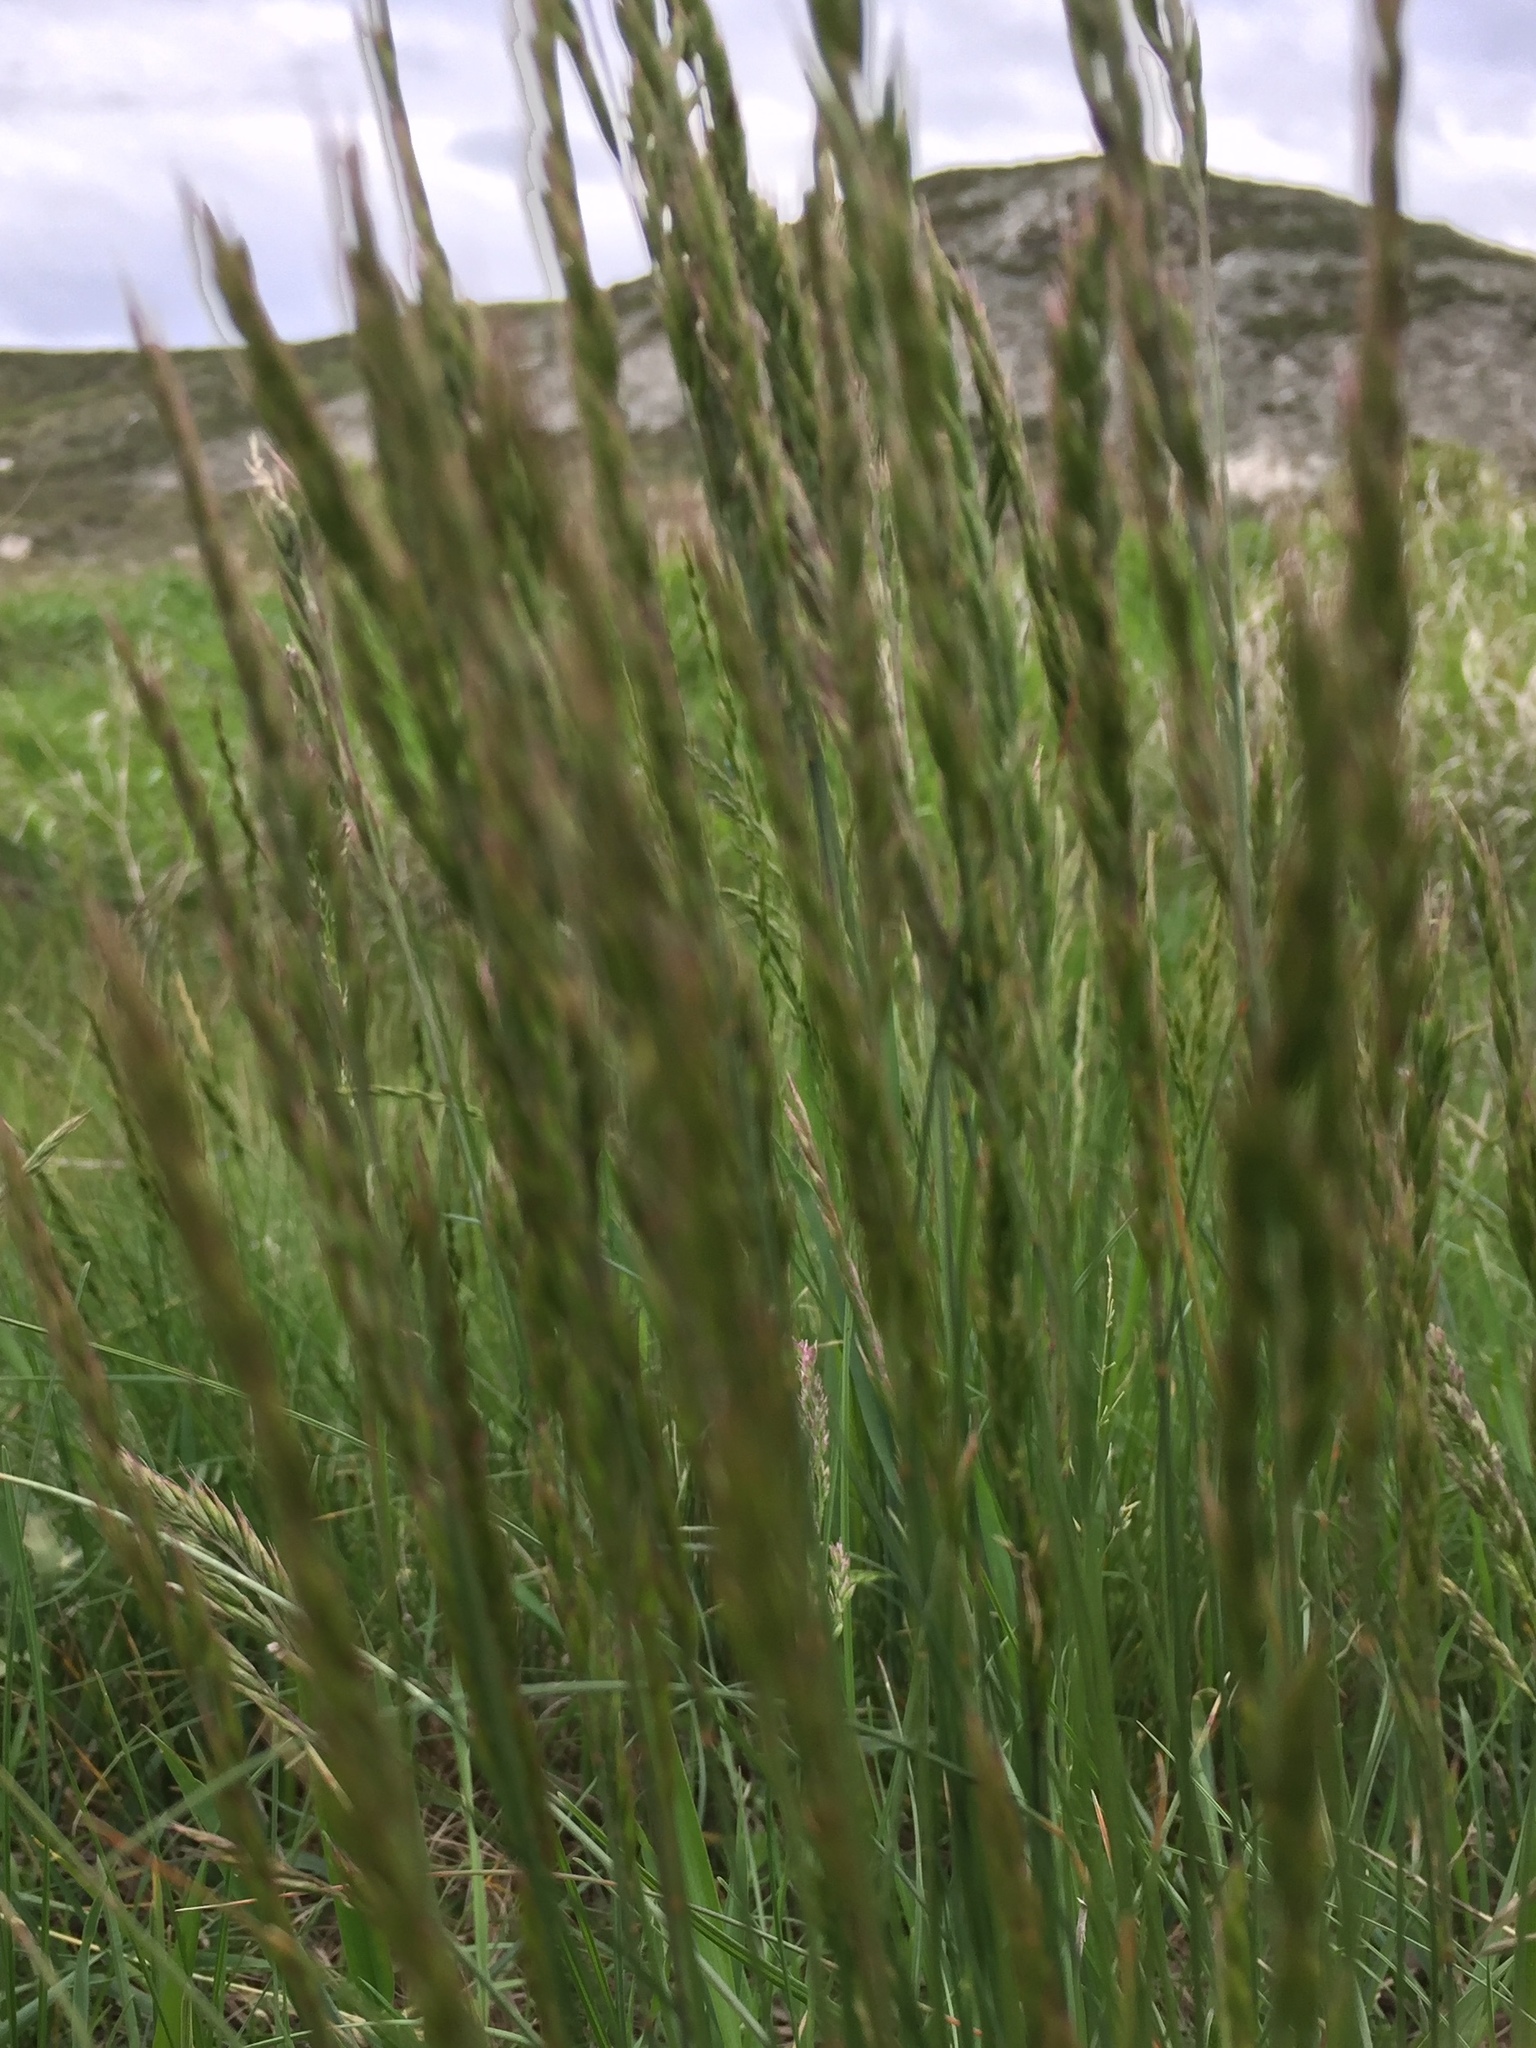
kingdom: Plantae
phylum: Tracheophyta
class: Liliopsida
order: Poales
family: Poaceae
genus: Koeleria
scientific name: Koeleria macrantha
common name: Crested hair-grass
